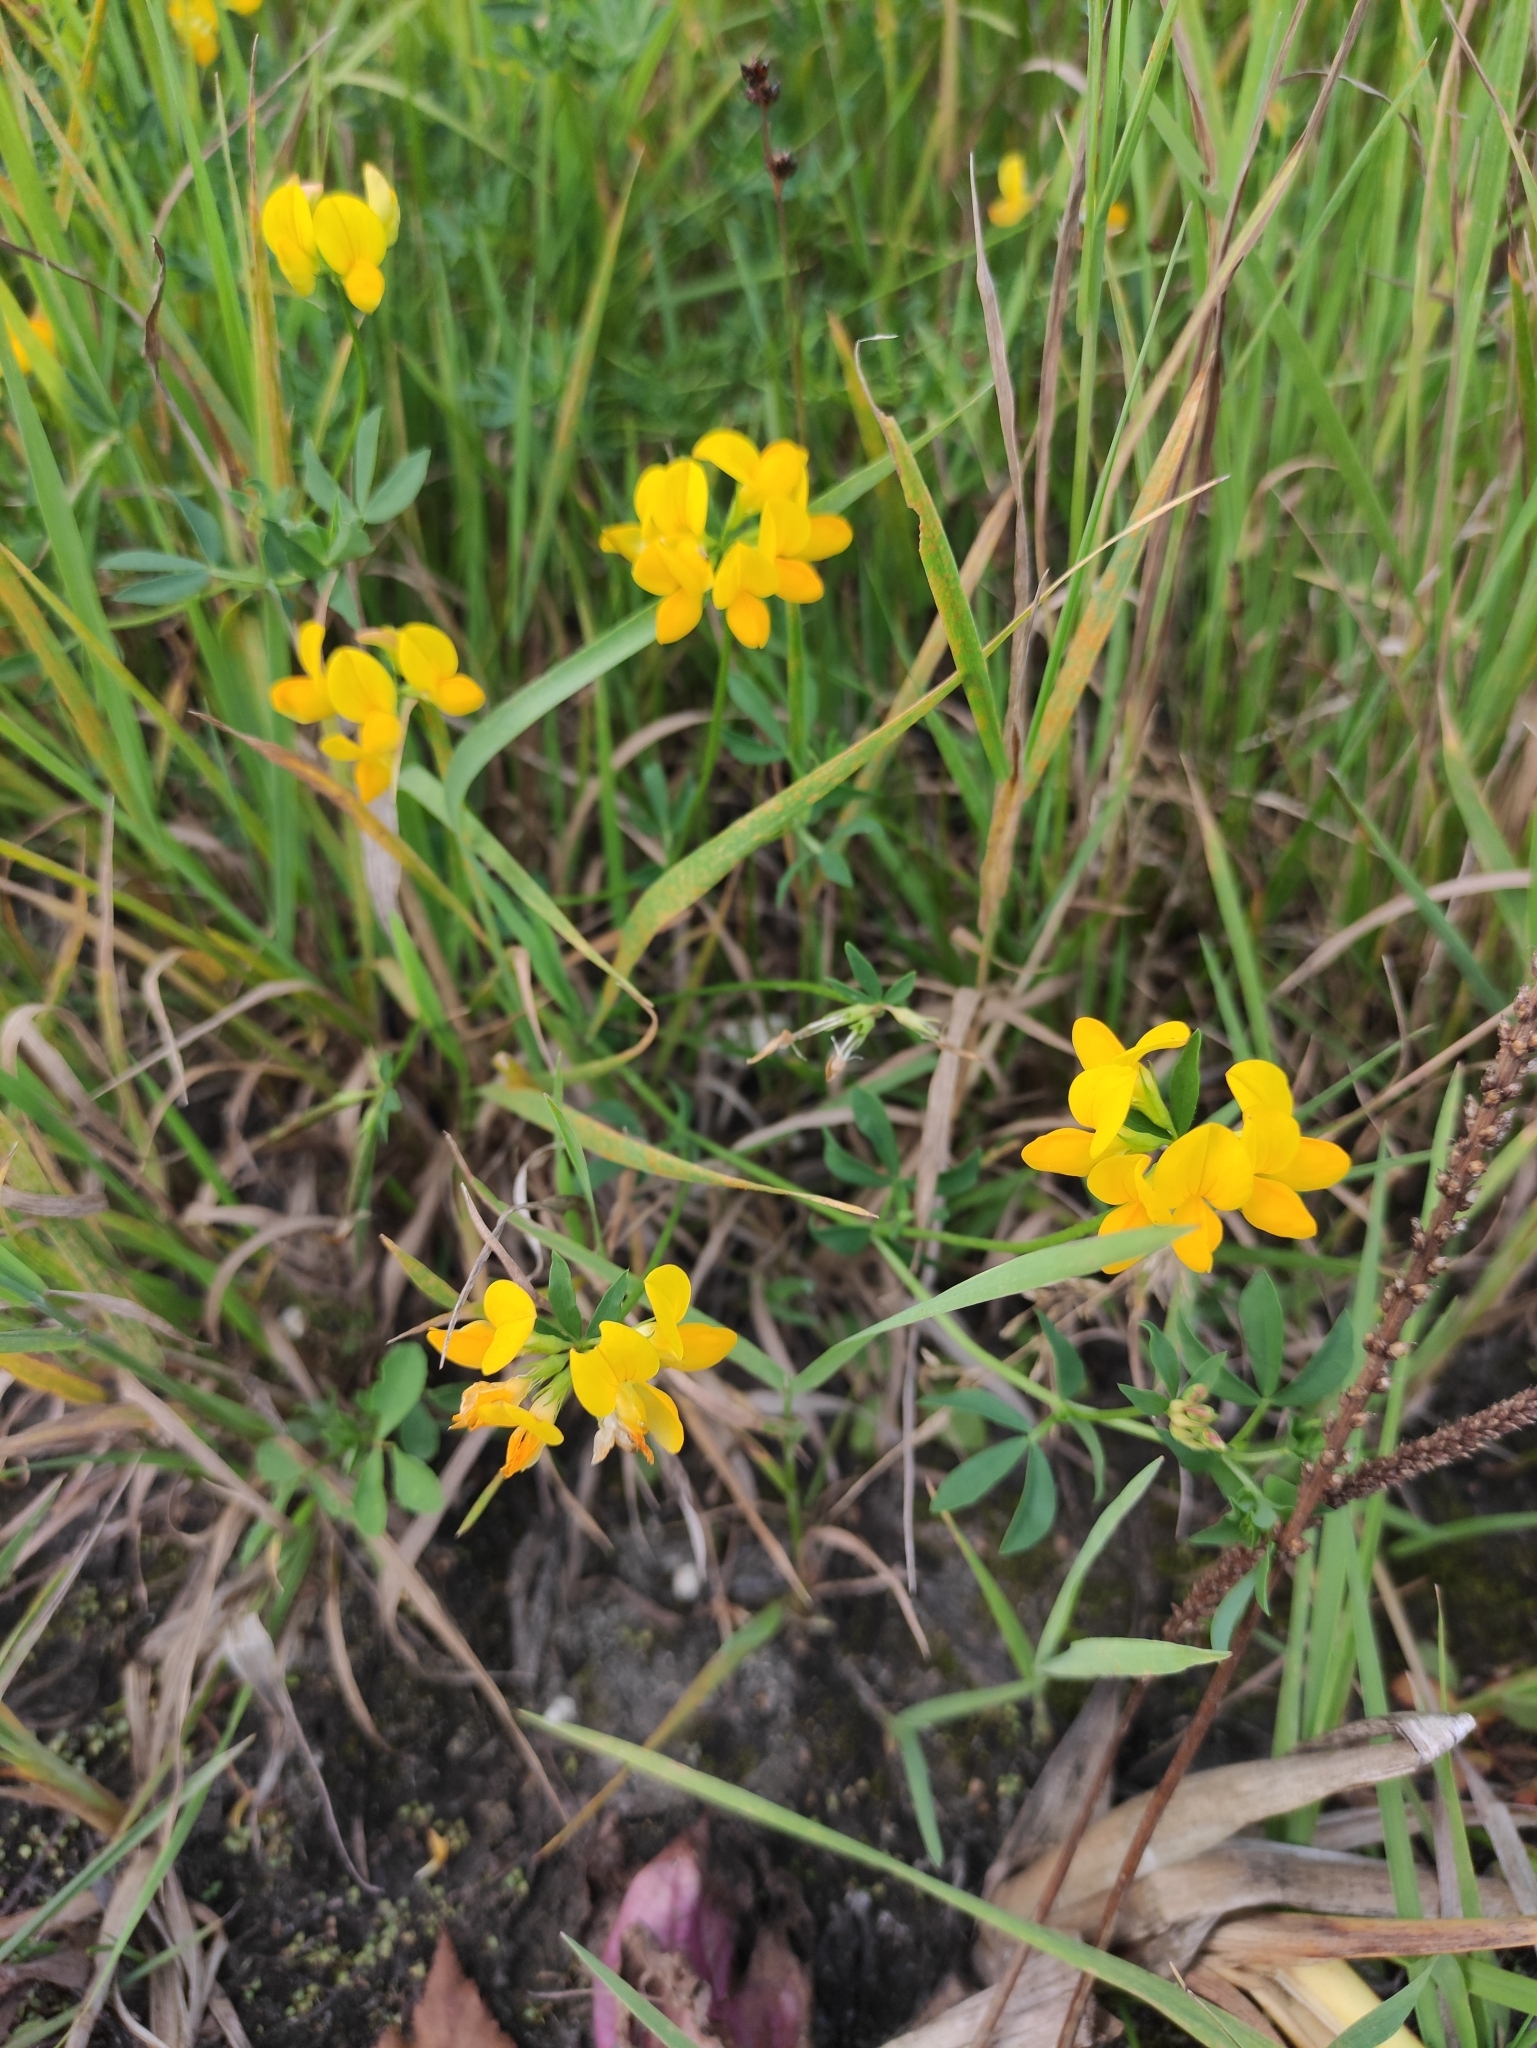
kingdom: Plantae
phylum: Tracheophyta
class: Magnoliopsida
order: Fabales
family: Fabaceae
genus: Lotus
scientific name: Lotus corniculatus
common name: Common bird's-foot-trefoil
